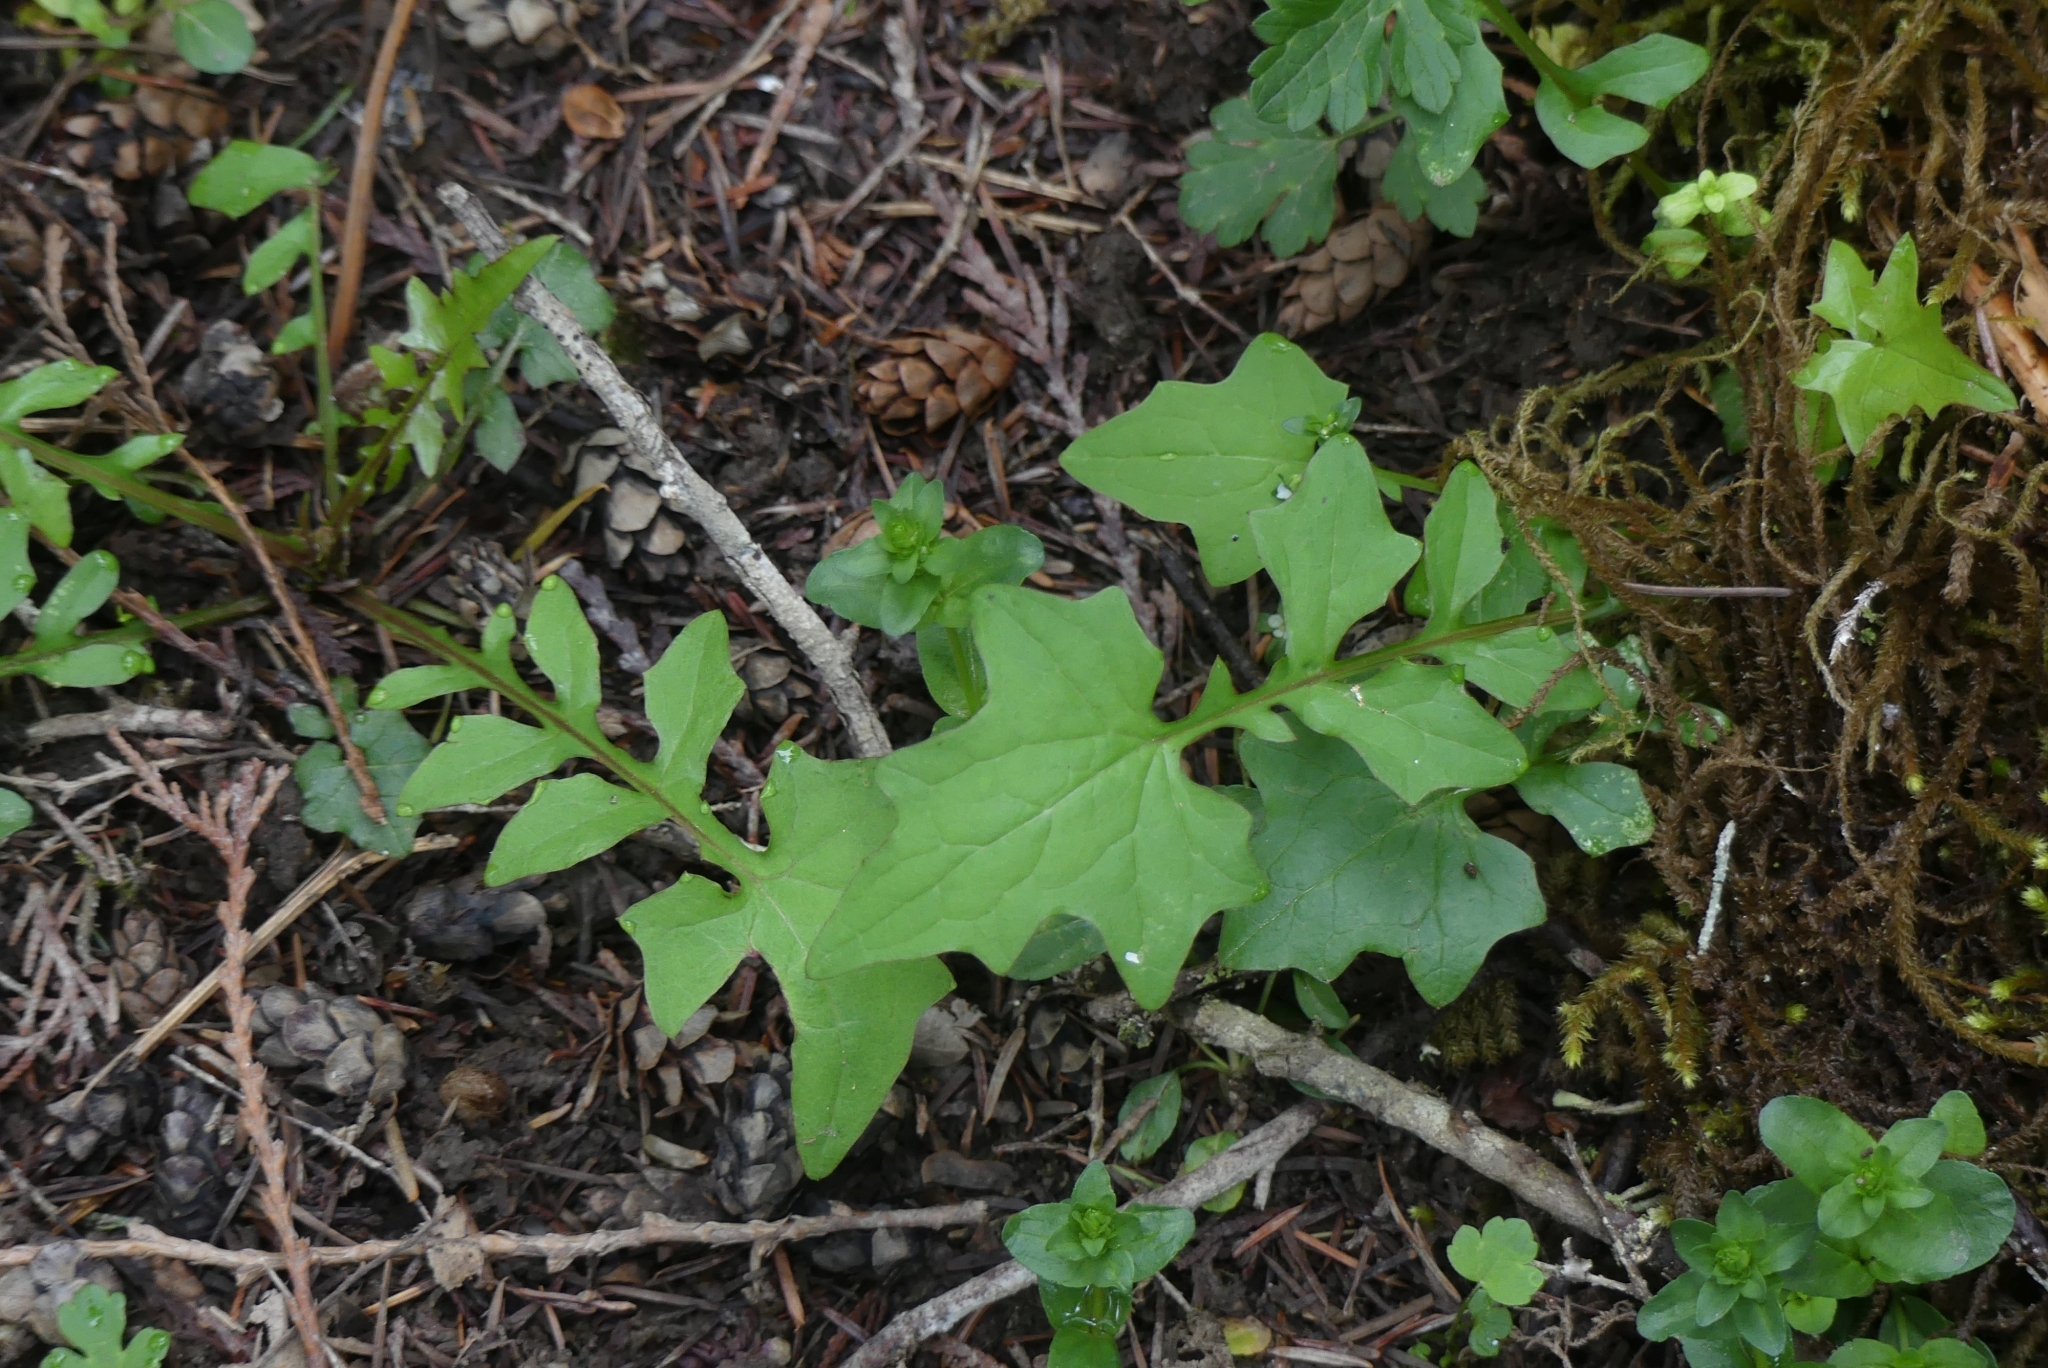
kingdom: Plantae
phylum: Tracheophyta
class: Magnoliopsida
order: Asterales
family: Asteraceae
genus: Mycelis
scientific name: Mycelis muralis
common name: Wall lettuce
